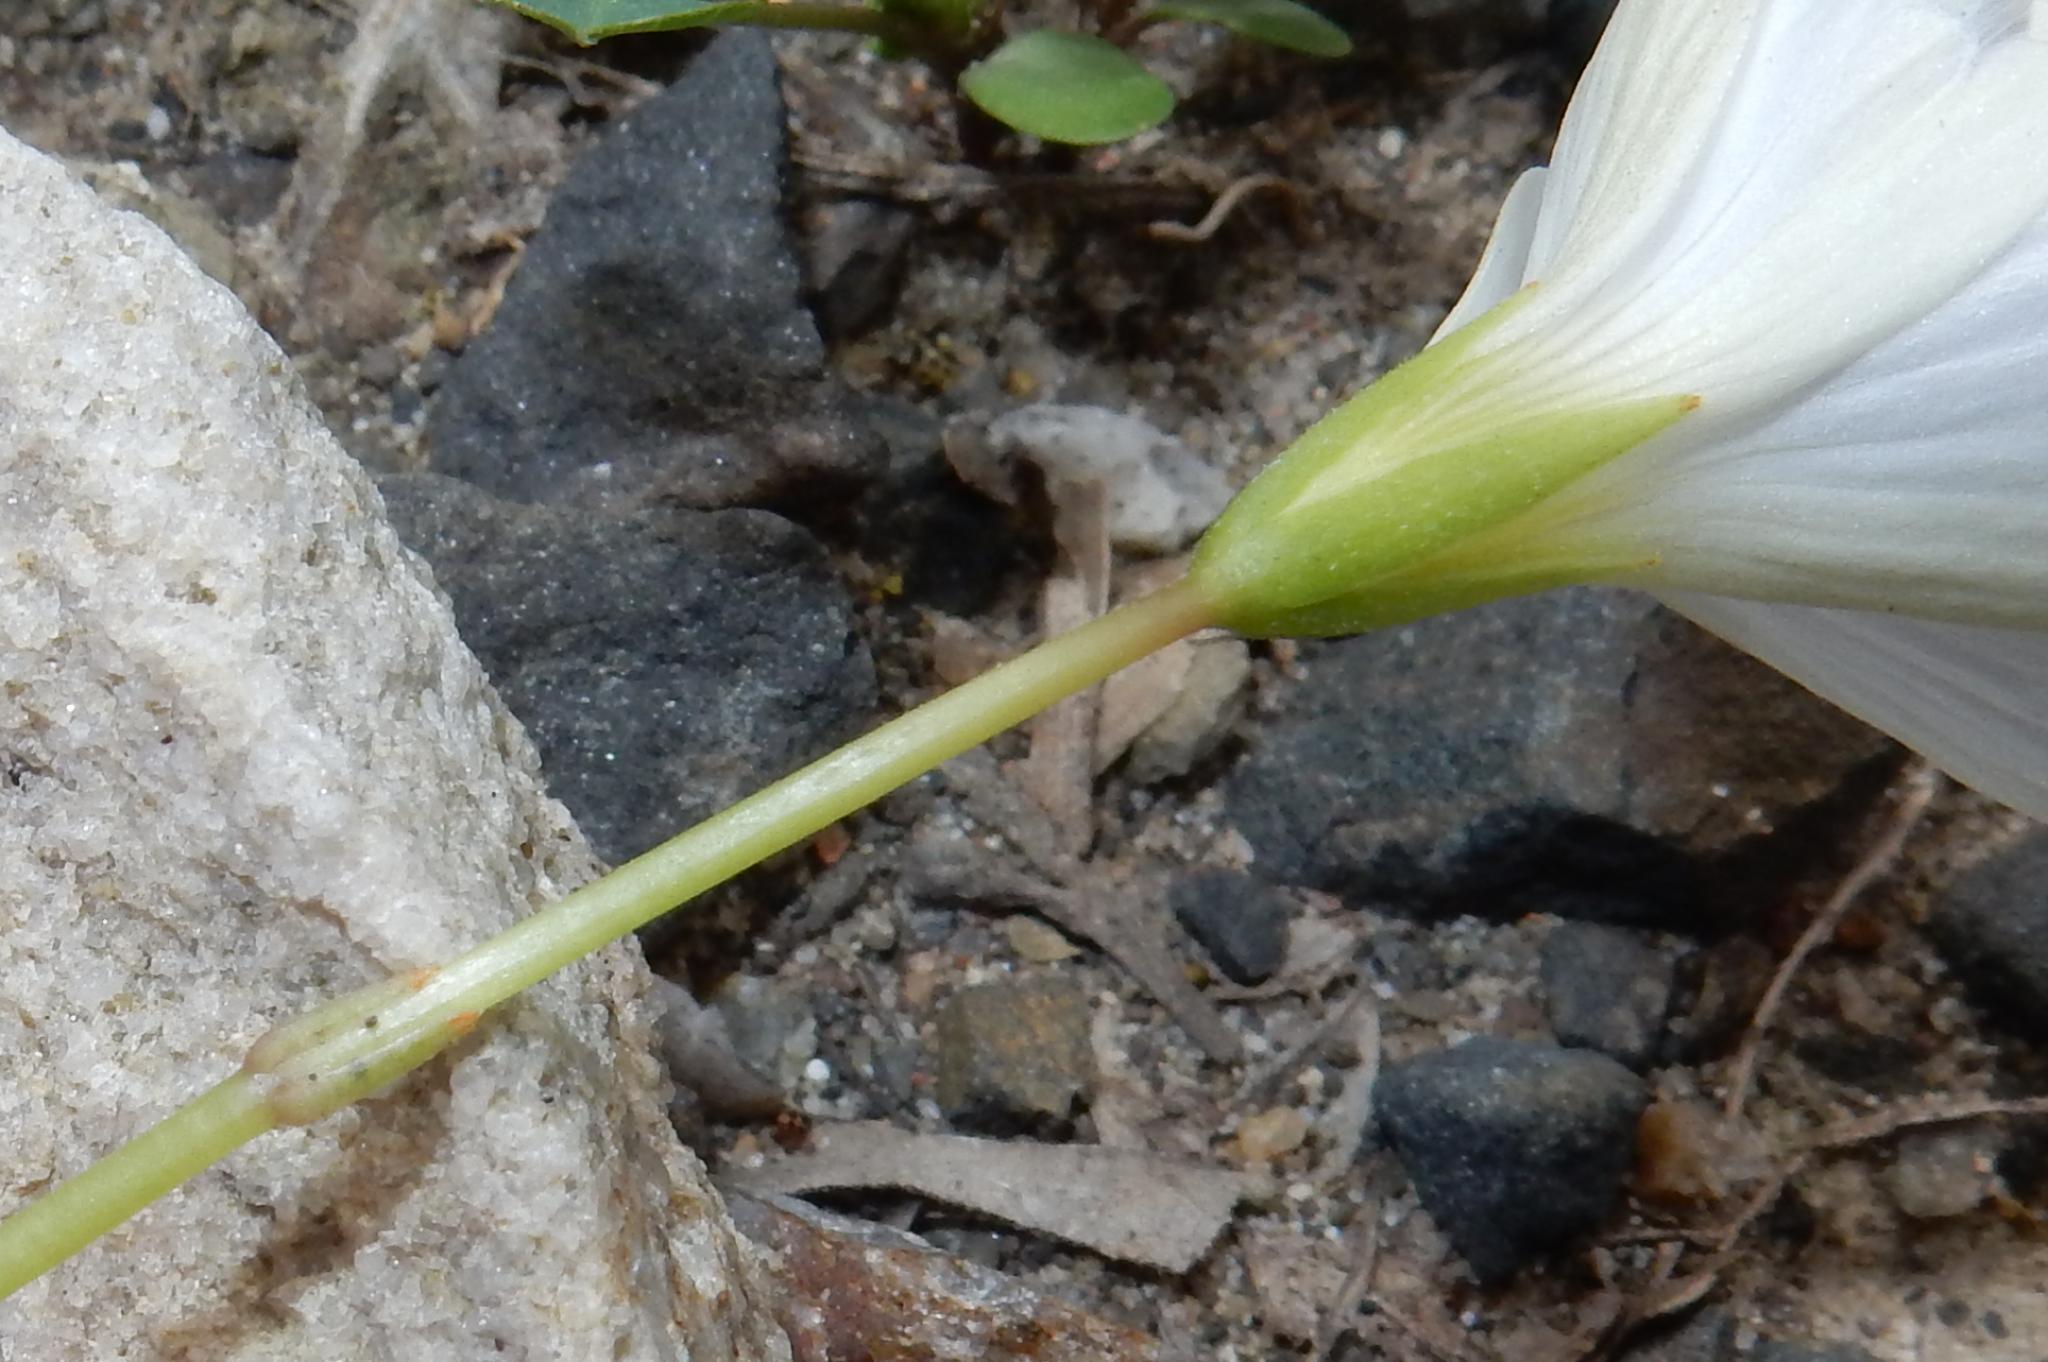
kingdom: Plantae
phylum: Tracheophyta
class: Magnoliopsida
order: Oxalidales
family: Oxalidaceae
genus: Oxalis
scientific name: Oxalis smithiana
